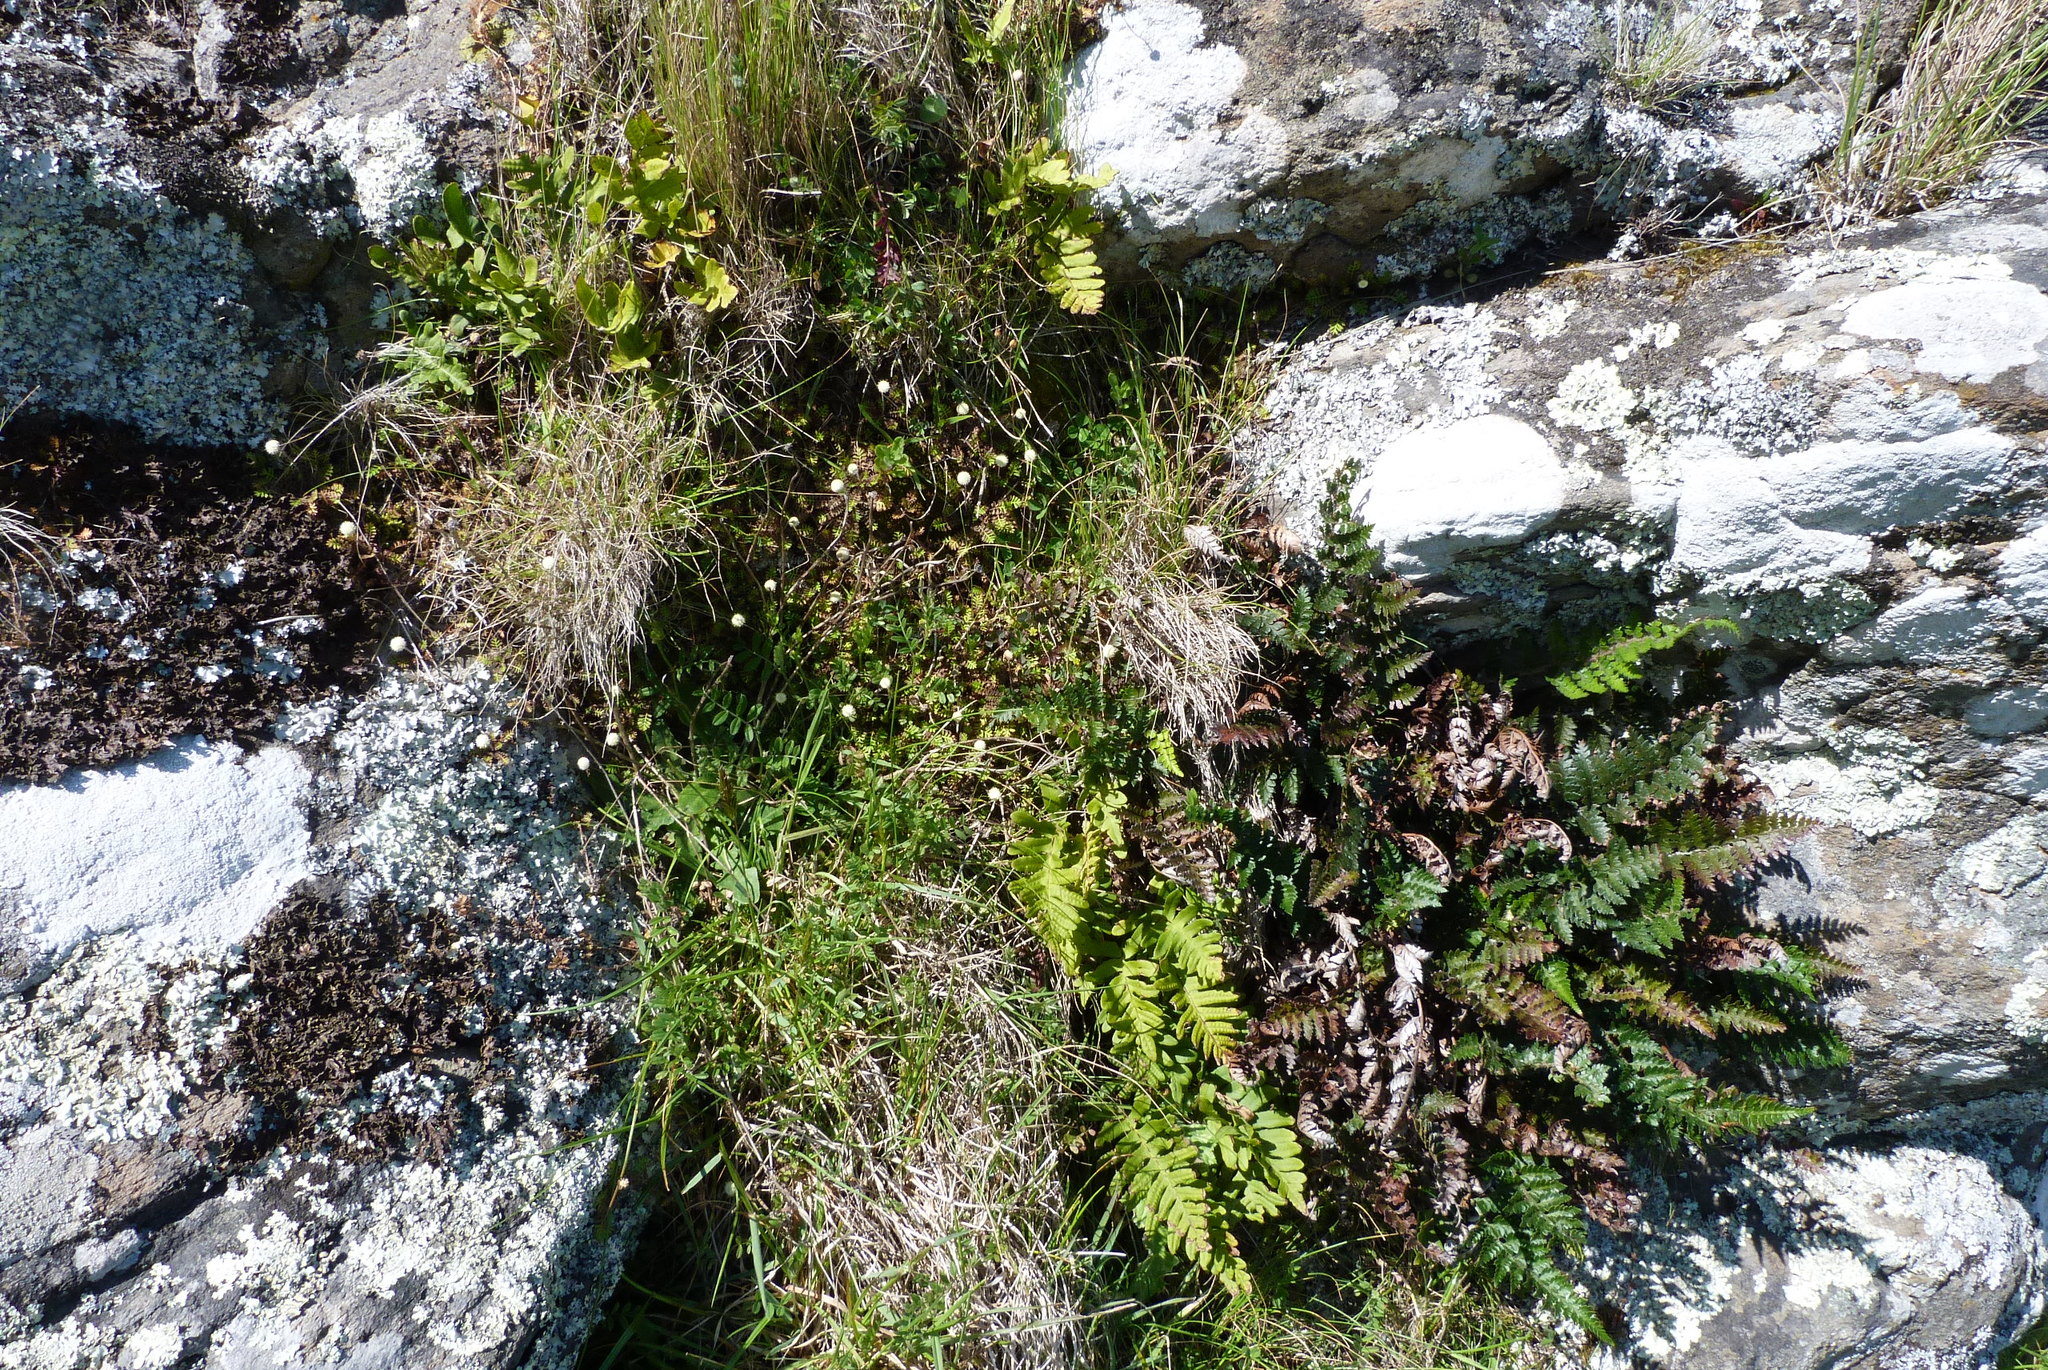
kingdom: Plantae
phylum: Tracheophyta
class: Polypodiopsida
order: Polypodiales
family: Polypodiaceae
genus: Polypodium
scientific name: Polypodium vulgare
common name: Common polypody
